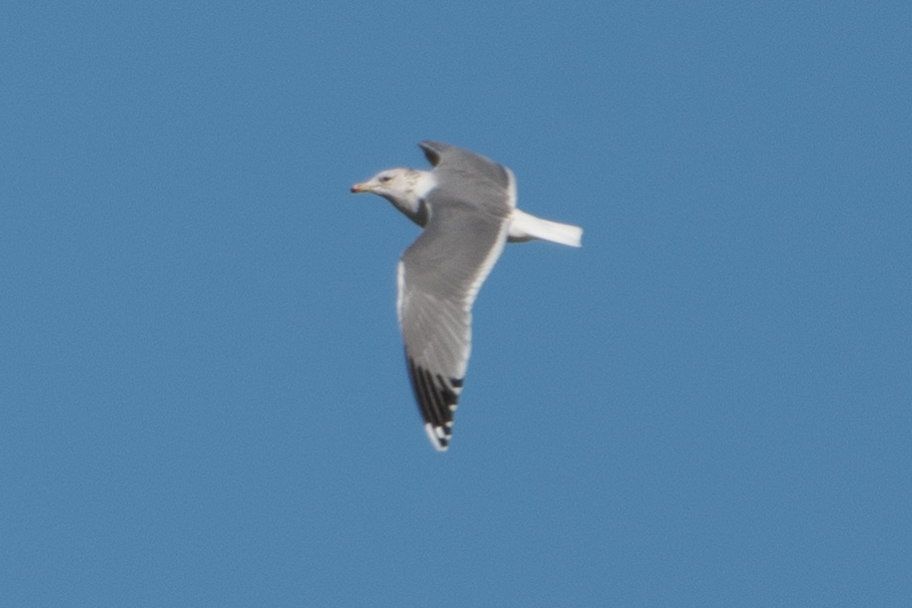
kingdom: Animalia
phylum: Chordata
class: Aves
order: Charadriiformes
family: Laridae
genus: Larus
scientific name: Larus californicus
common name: California gull
